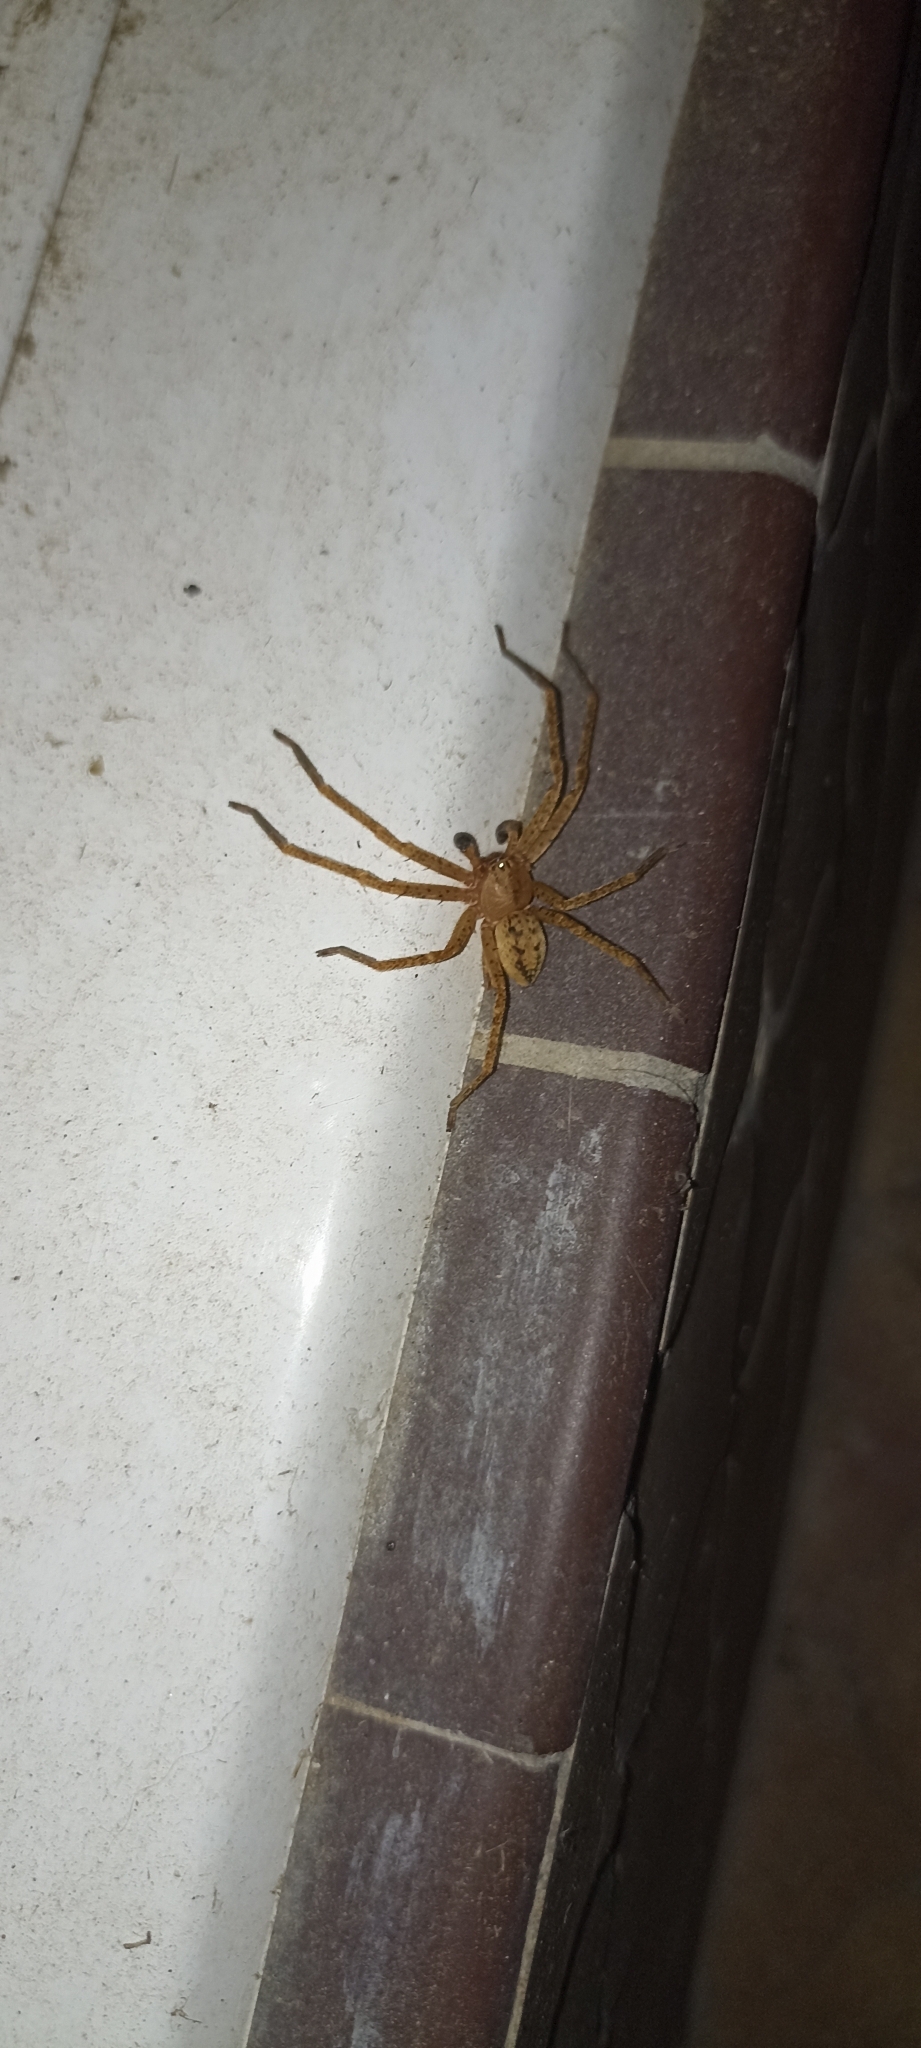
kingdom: Animalia
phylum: Arthropoda
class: Arachnida
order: Araneae
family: Sparassidae
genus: Olios
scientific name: Olios argelasius
